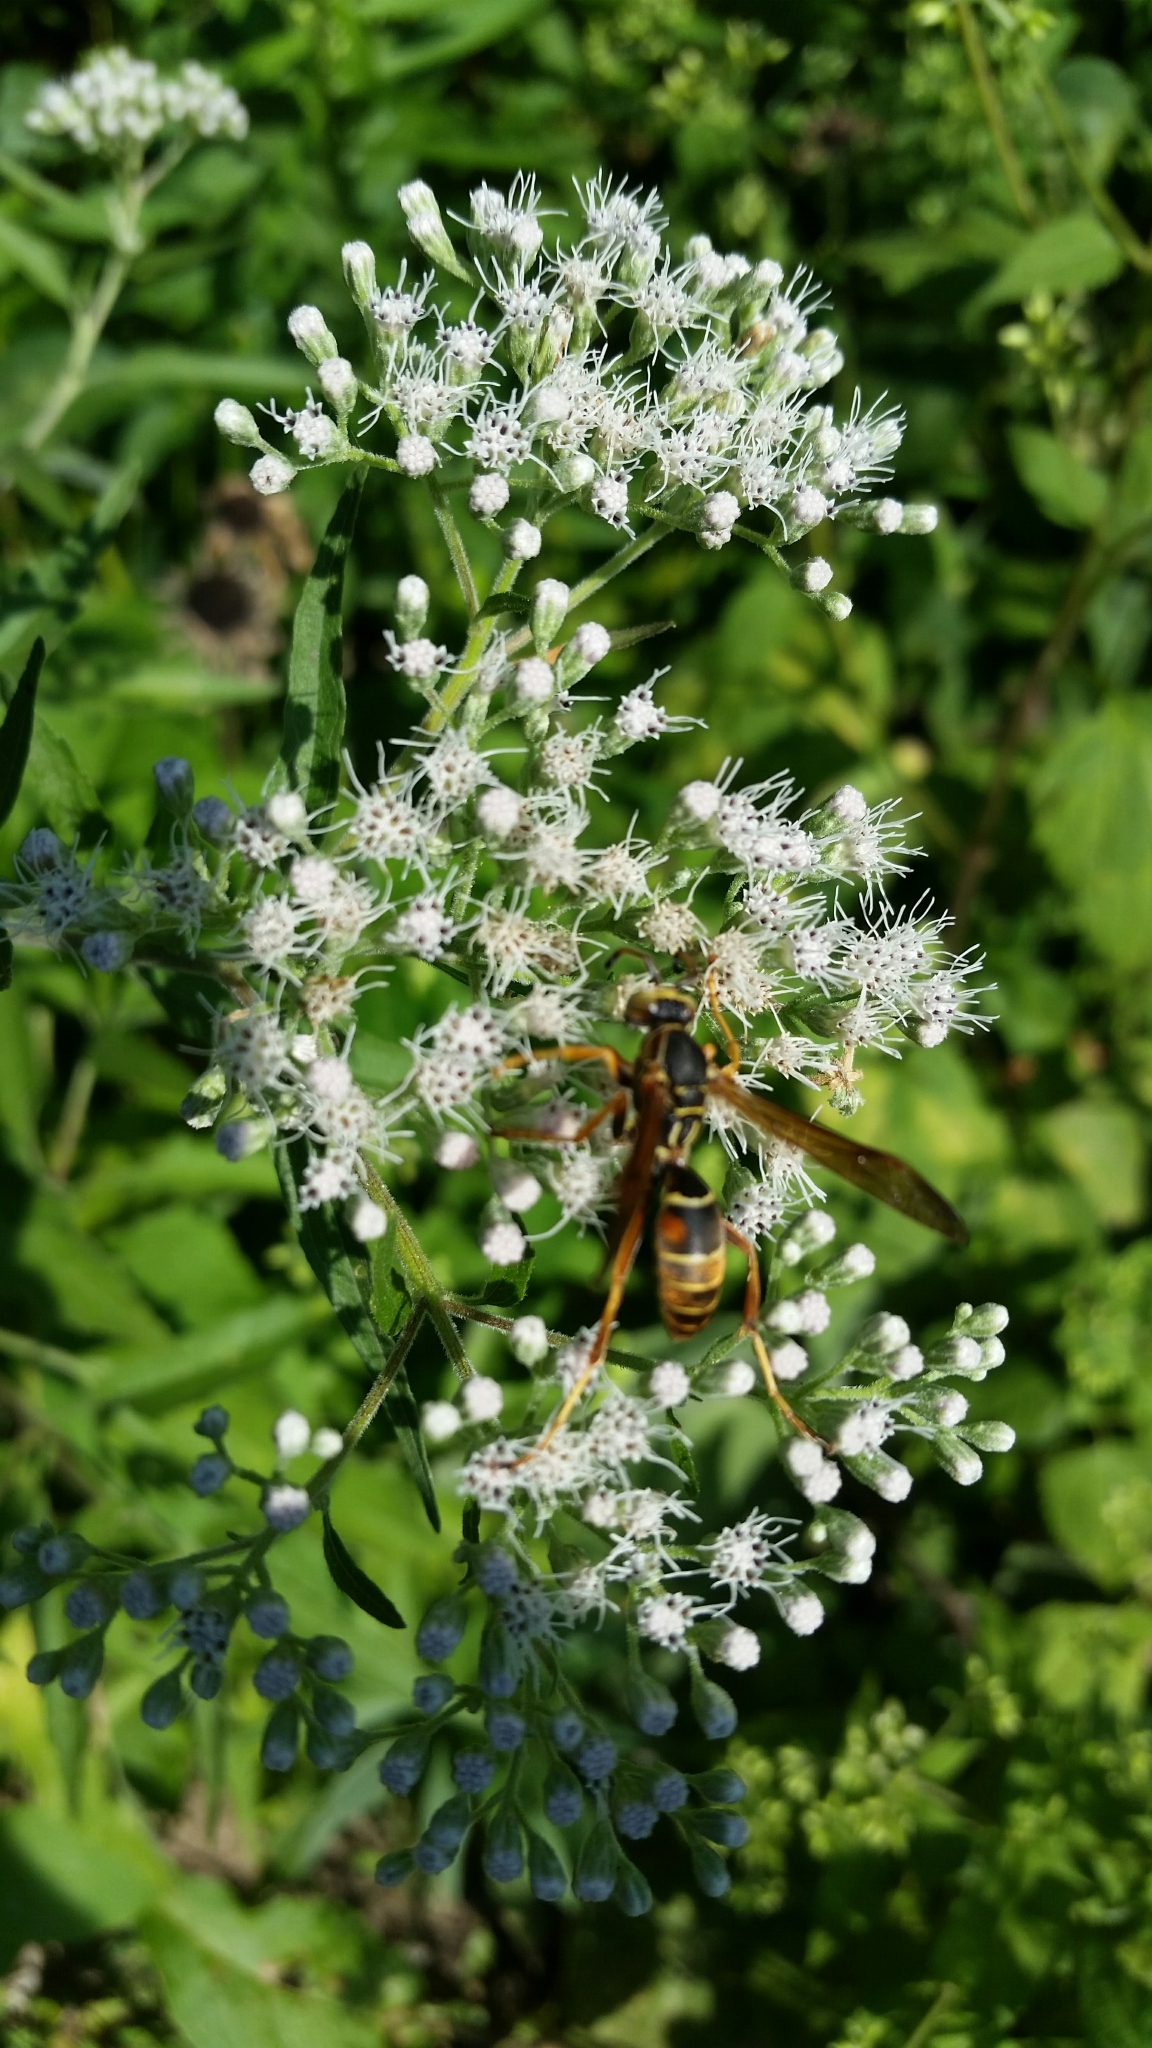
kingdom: Animalia
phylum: Arthropoda
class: Insecta
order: Hymenoptera
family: Eumenidae
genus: Polistes
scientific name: Polistes fuscatus
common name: Dark paper wasp
